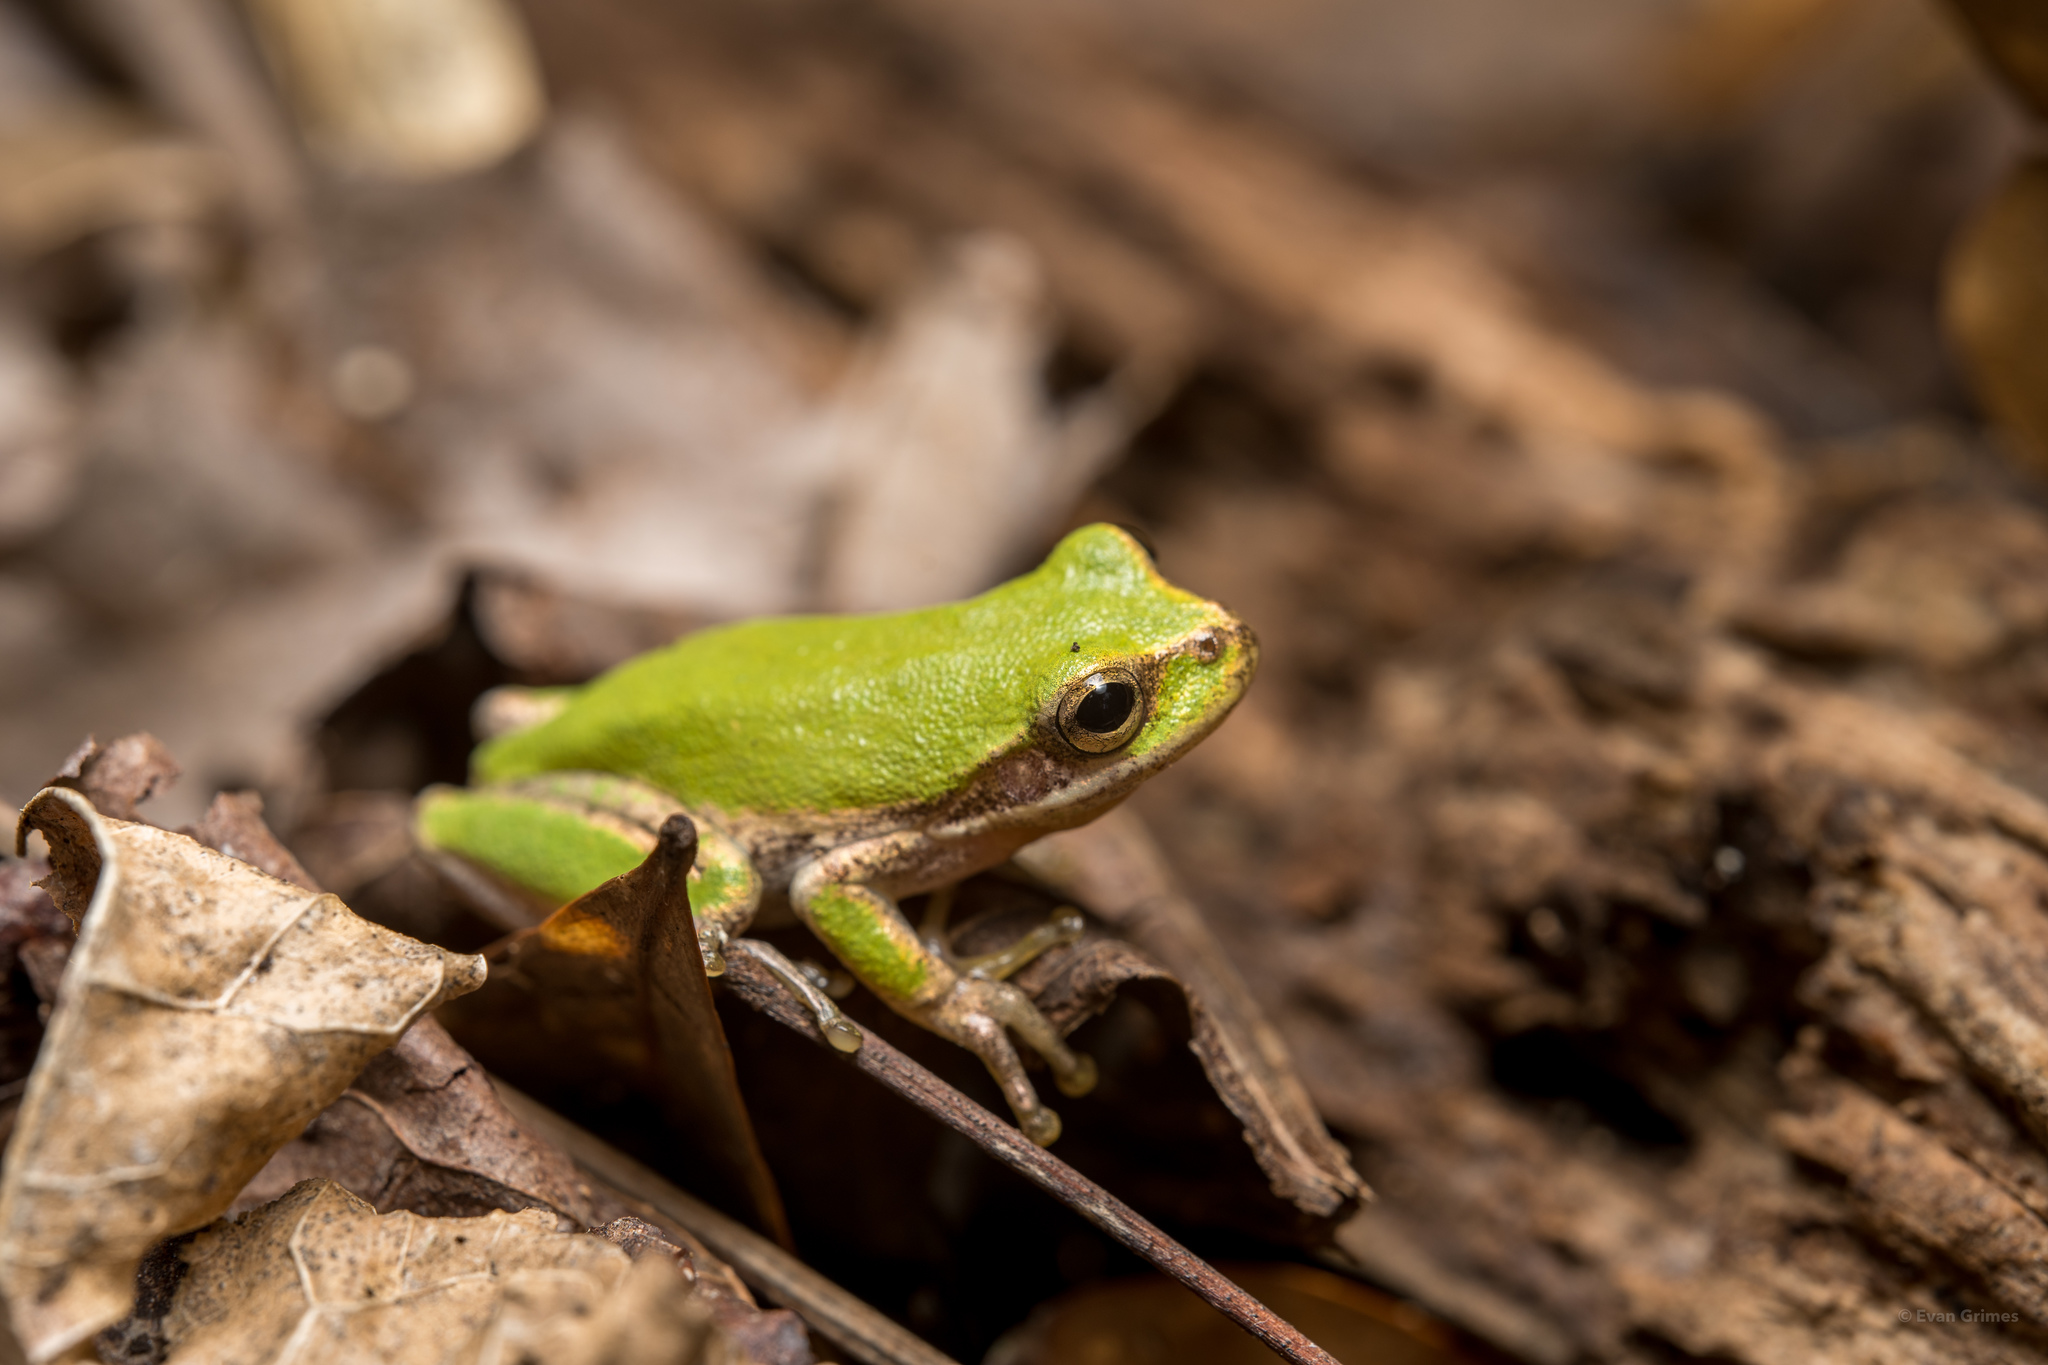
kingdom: Animalia
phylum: Chordata
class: Amphibia
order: Anura
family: Hylidae
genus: Dryophytes
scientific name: Dryophytes squirellus
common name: Squirrel treefrog
